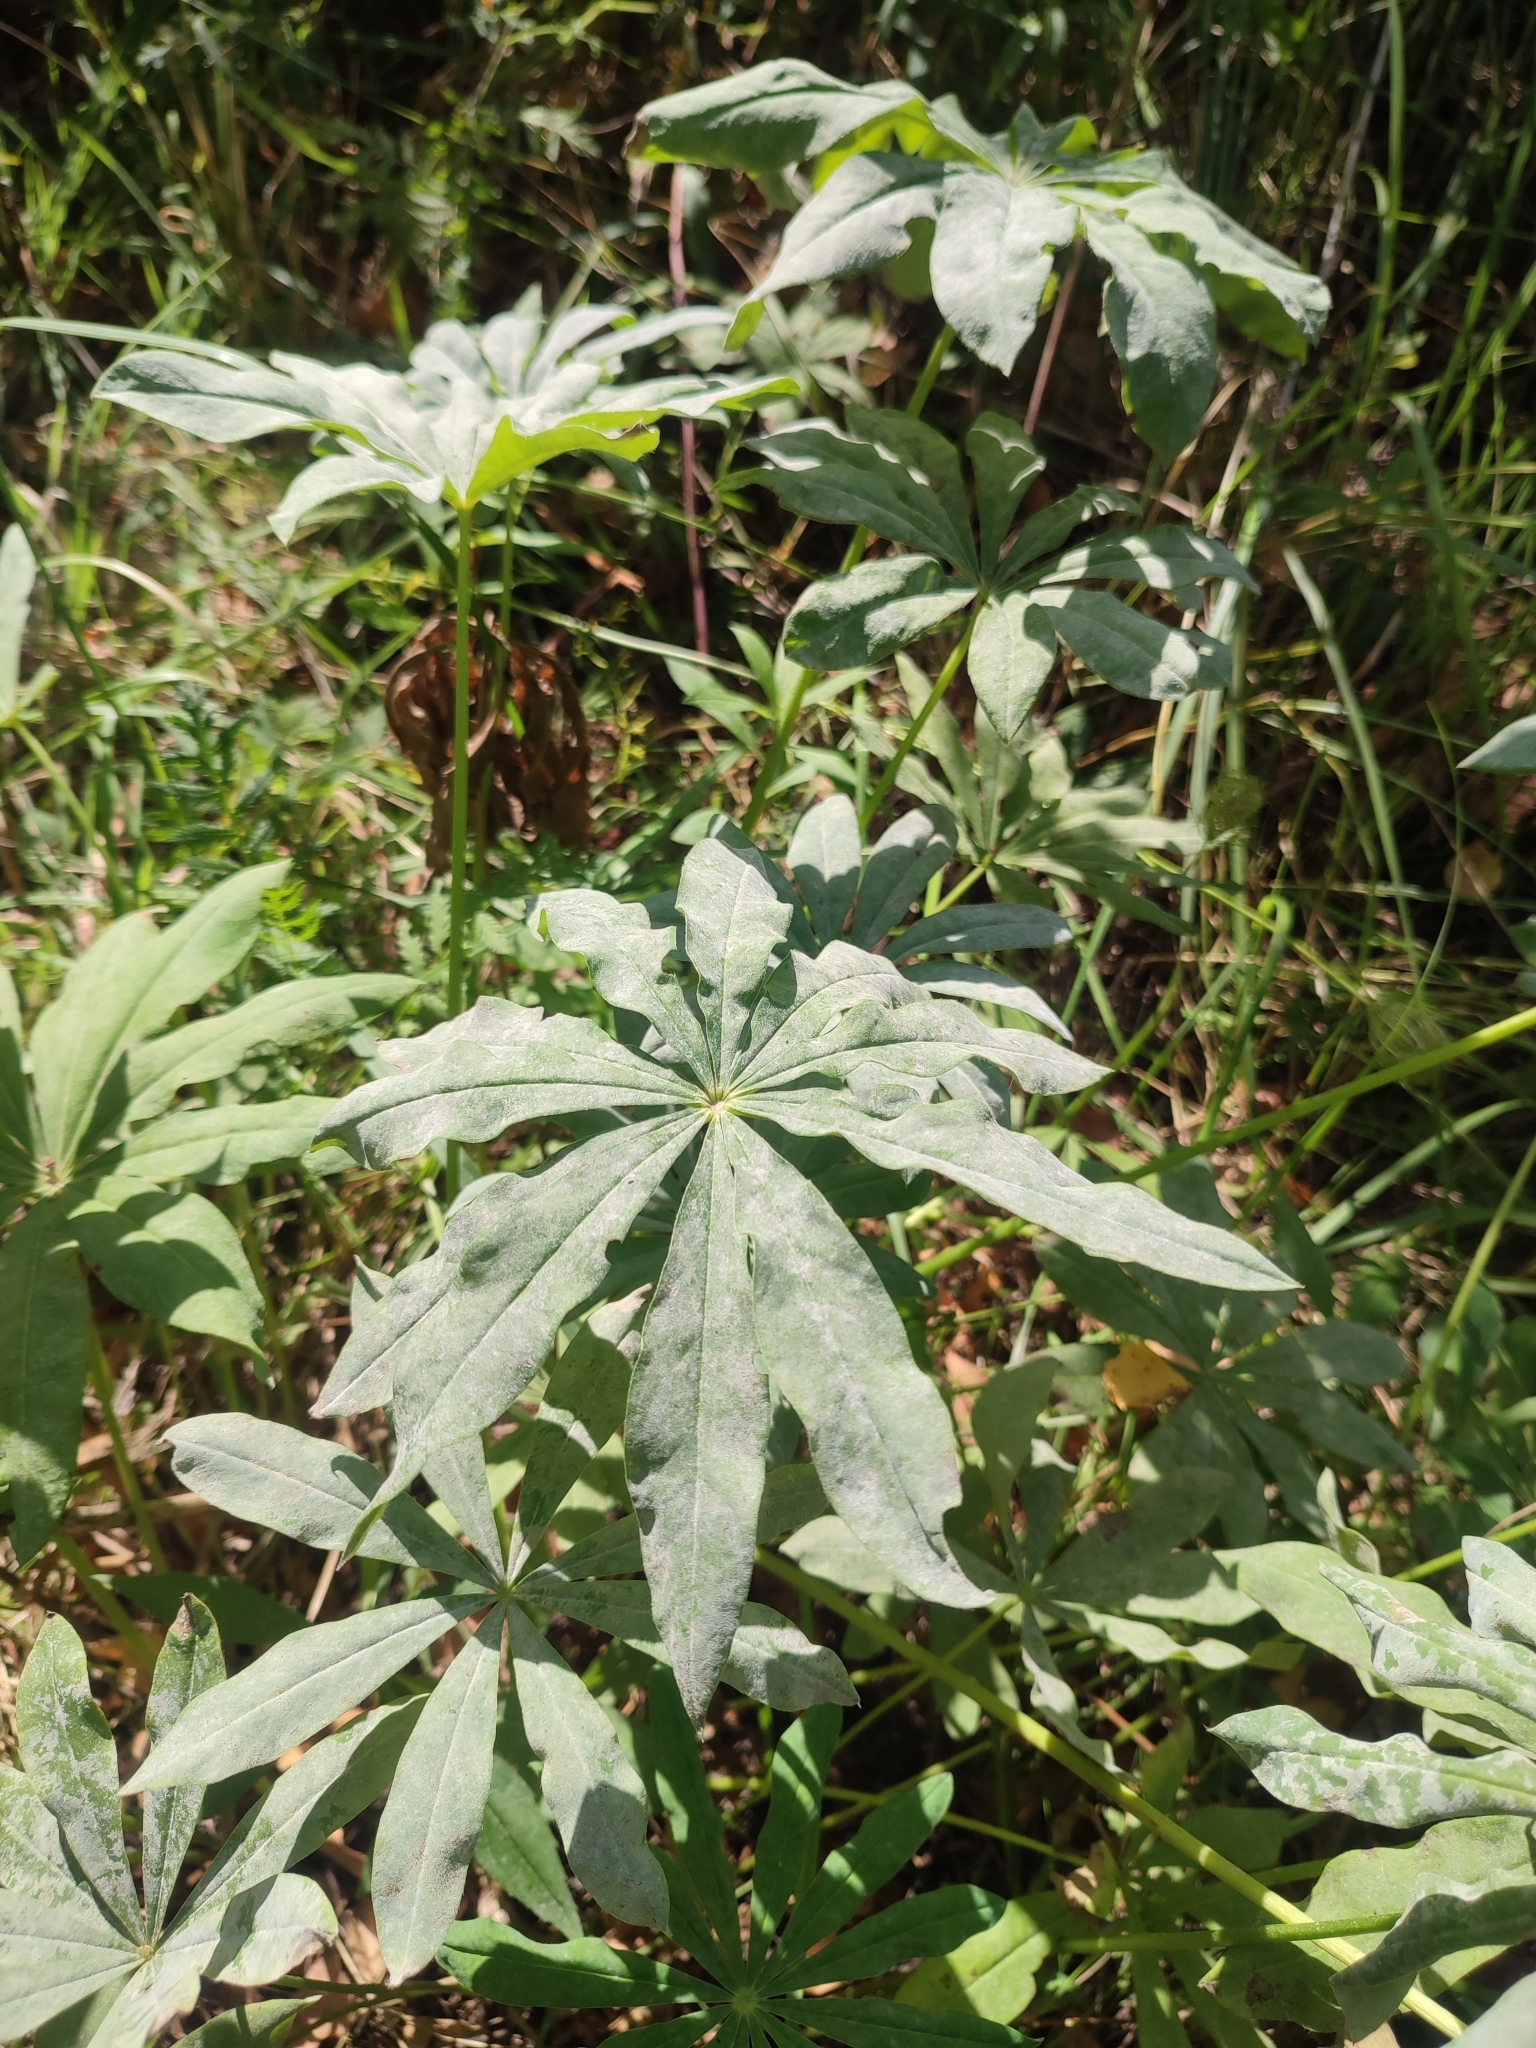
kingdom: Plantae
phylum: Tracheophyta
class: Magnoliopsida
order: Fabales
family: Fabaceae
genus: Lupinus
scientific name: Lupinus polyphyllus
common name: Garden lupin
